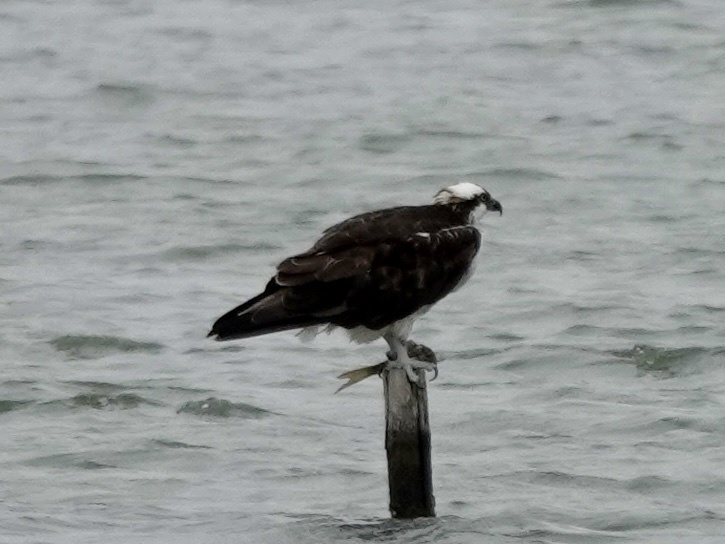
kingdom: Animalia
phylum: Chordata
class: Aves
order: Accipitriformes
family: Pandionidae
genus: Pandion
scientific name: Pandion haliaetus
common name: Osprey
